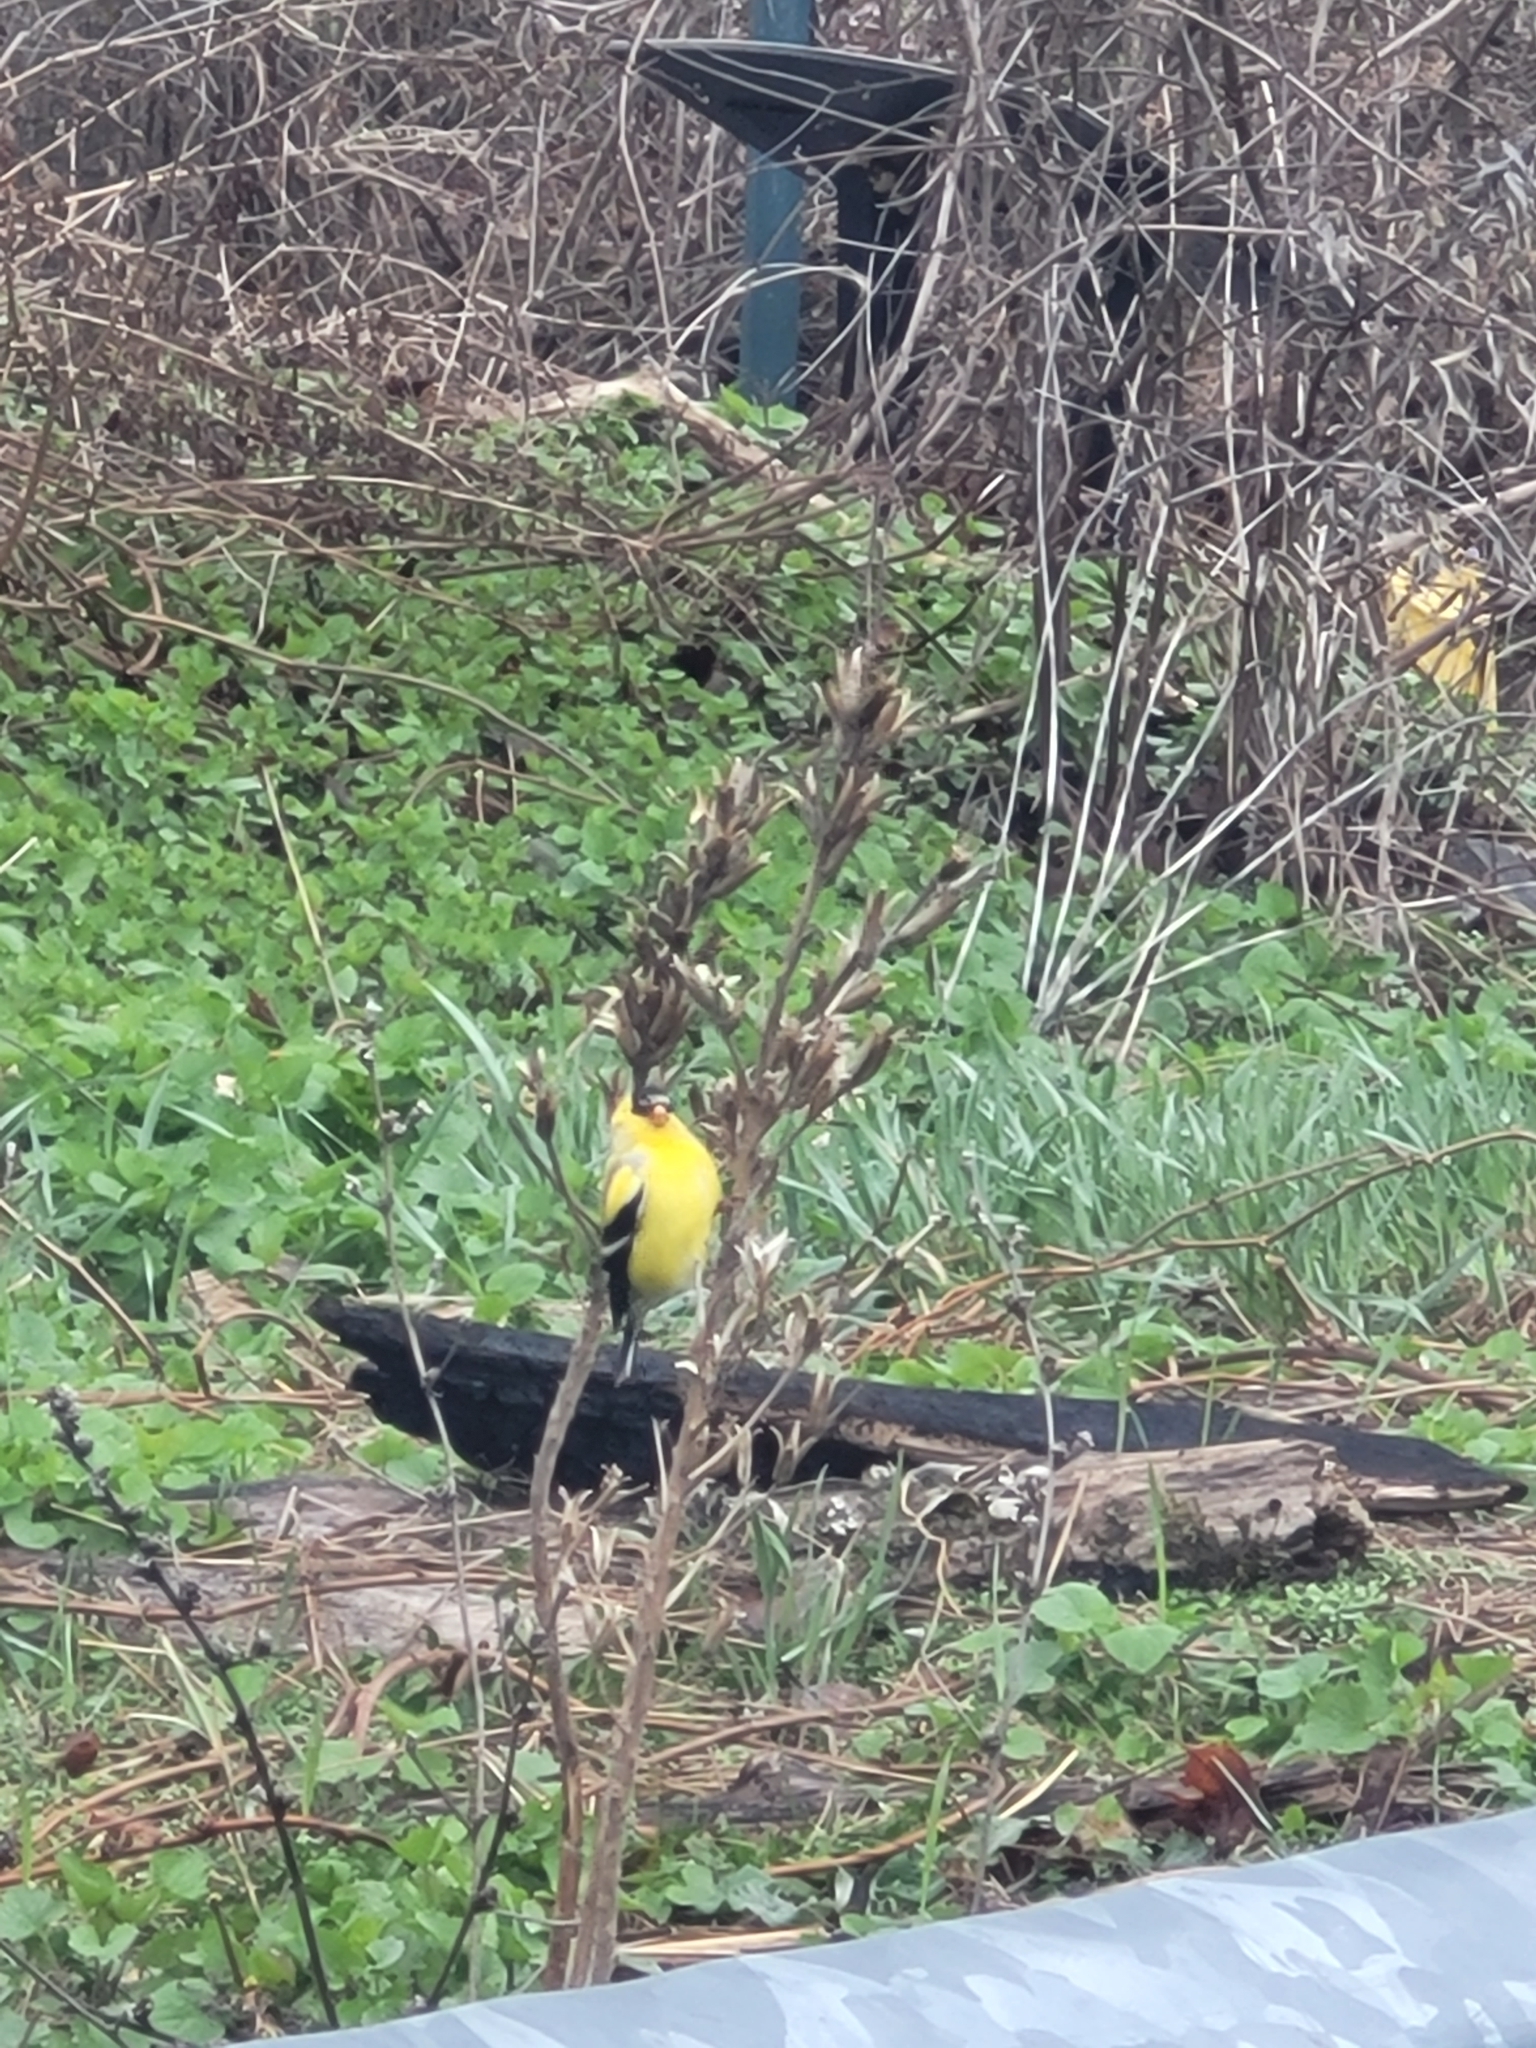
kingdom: Animalia
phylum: Chordata
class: Aves
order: Passeriformes
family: Fringillidae
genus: Spinus
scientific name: Spinus tristis
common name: American goldfinch
